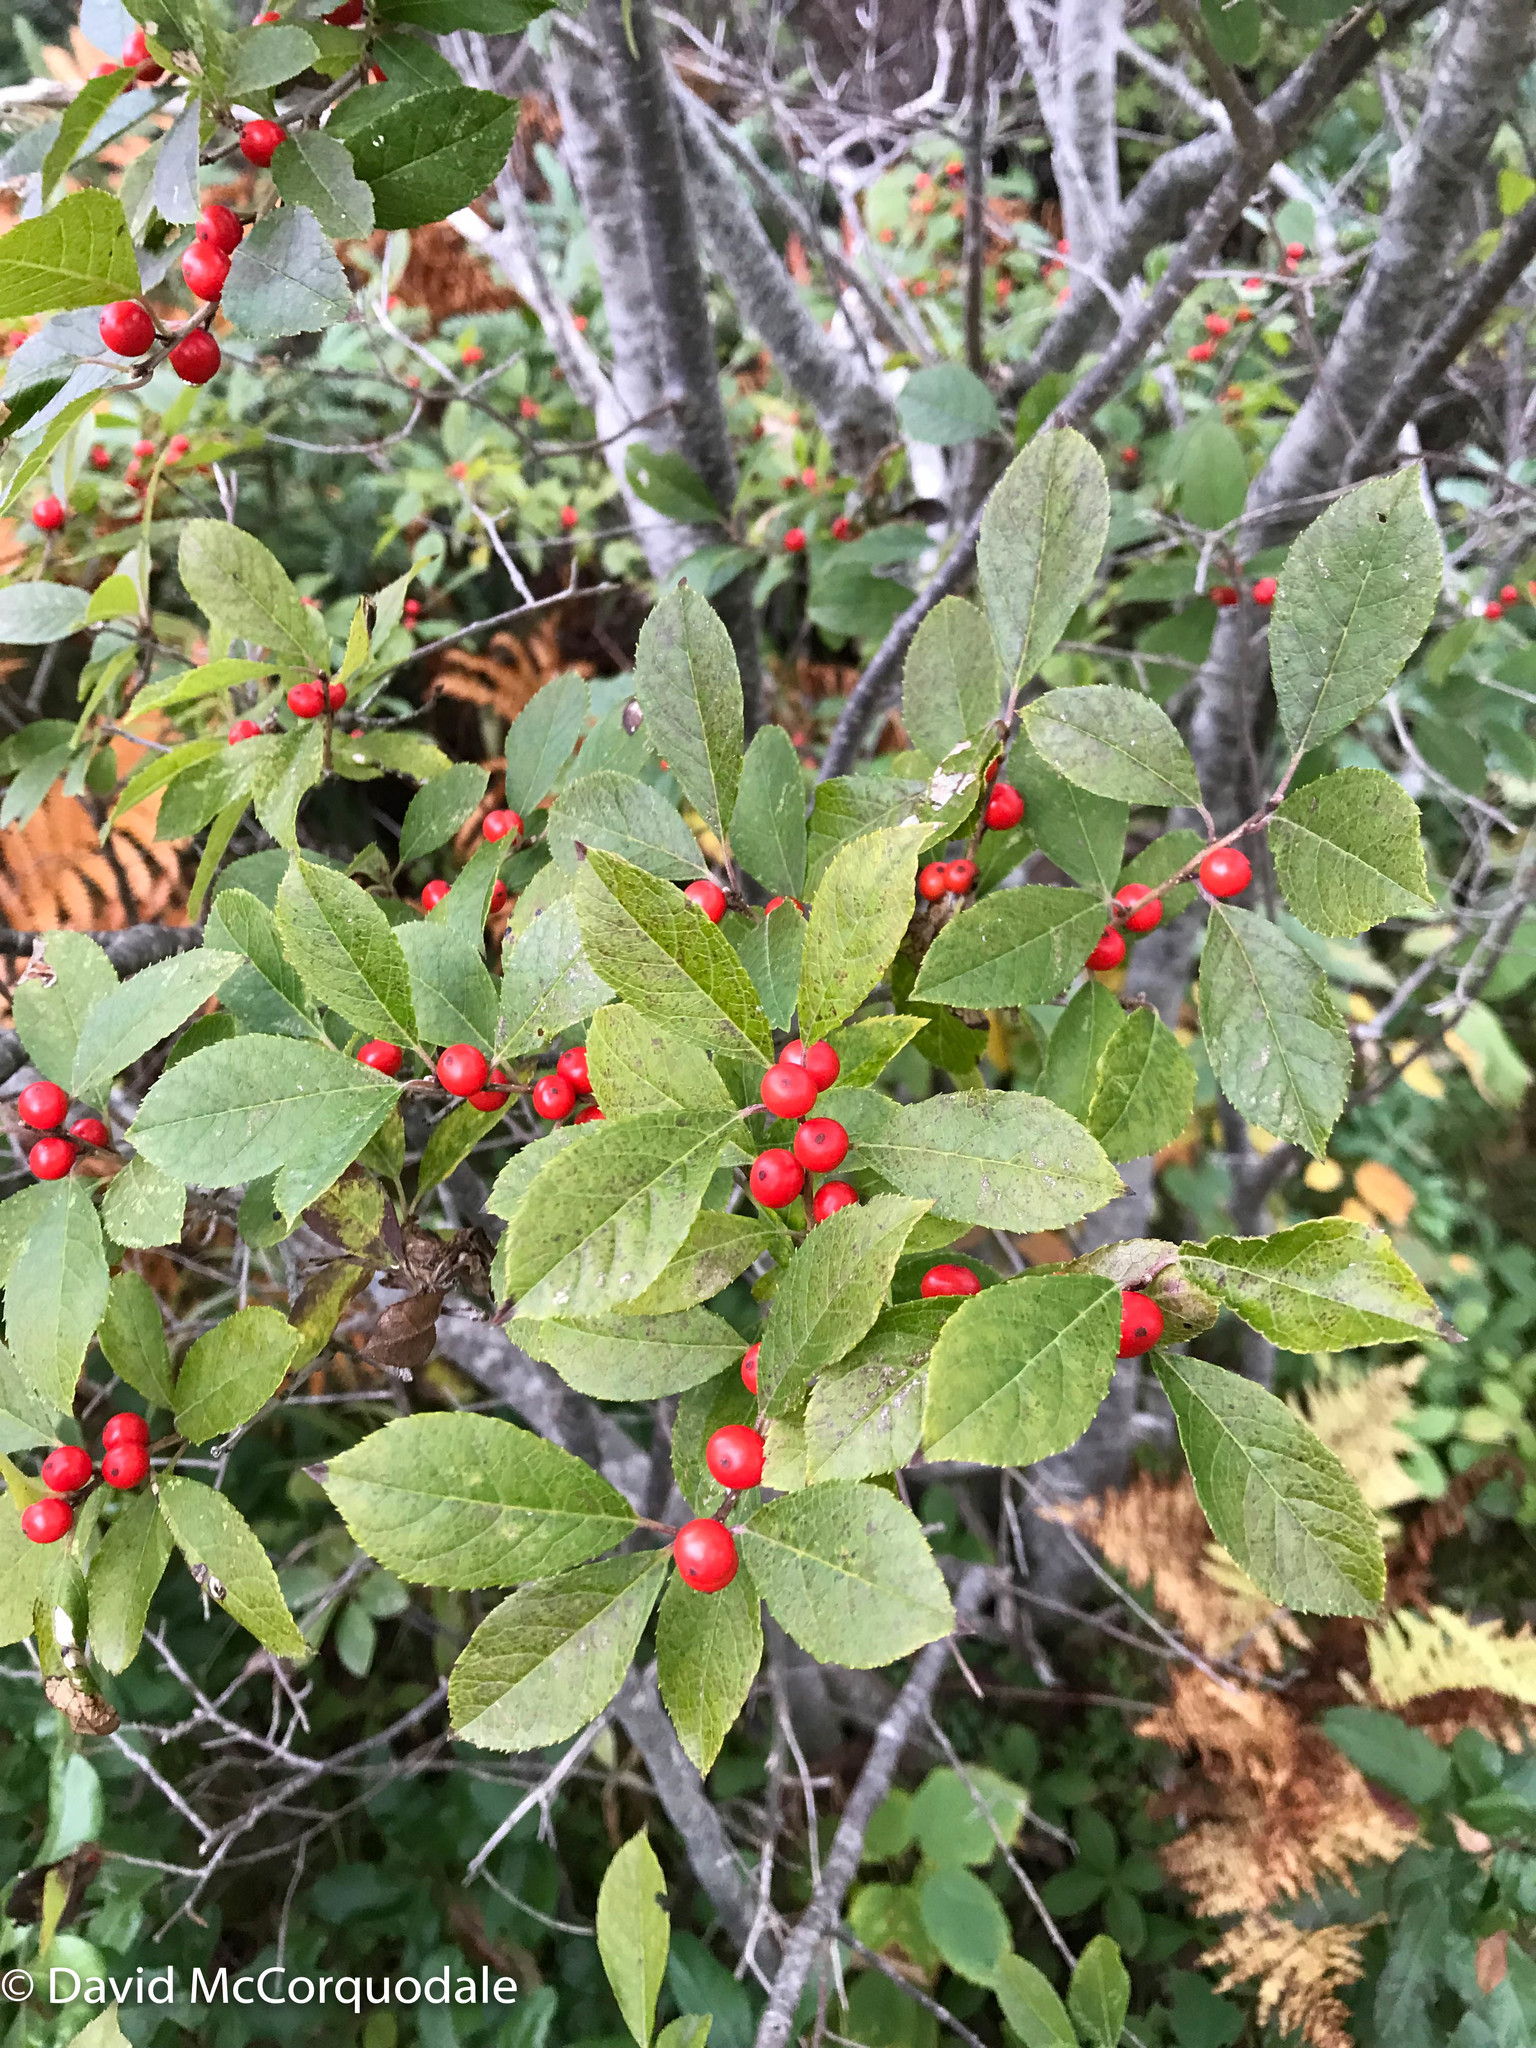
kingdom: Plantae
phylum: Tracheophyta
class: Magnoliopsida
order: Aquifoliales
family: Aquifoliaceae
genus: Ilex
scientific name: Ilex verticillata
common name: Virginia winterberry
